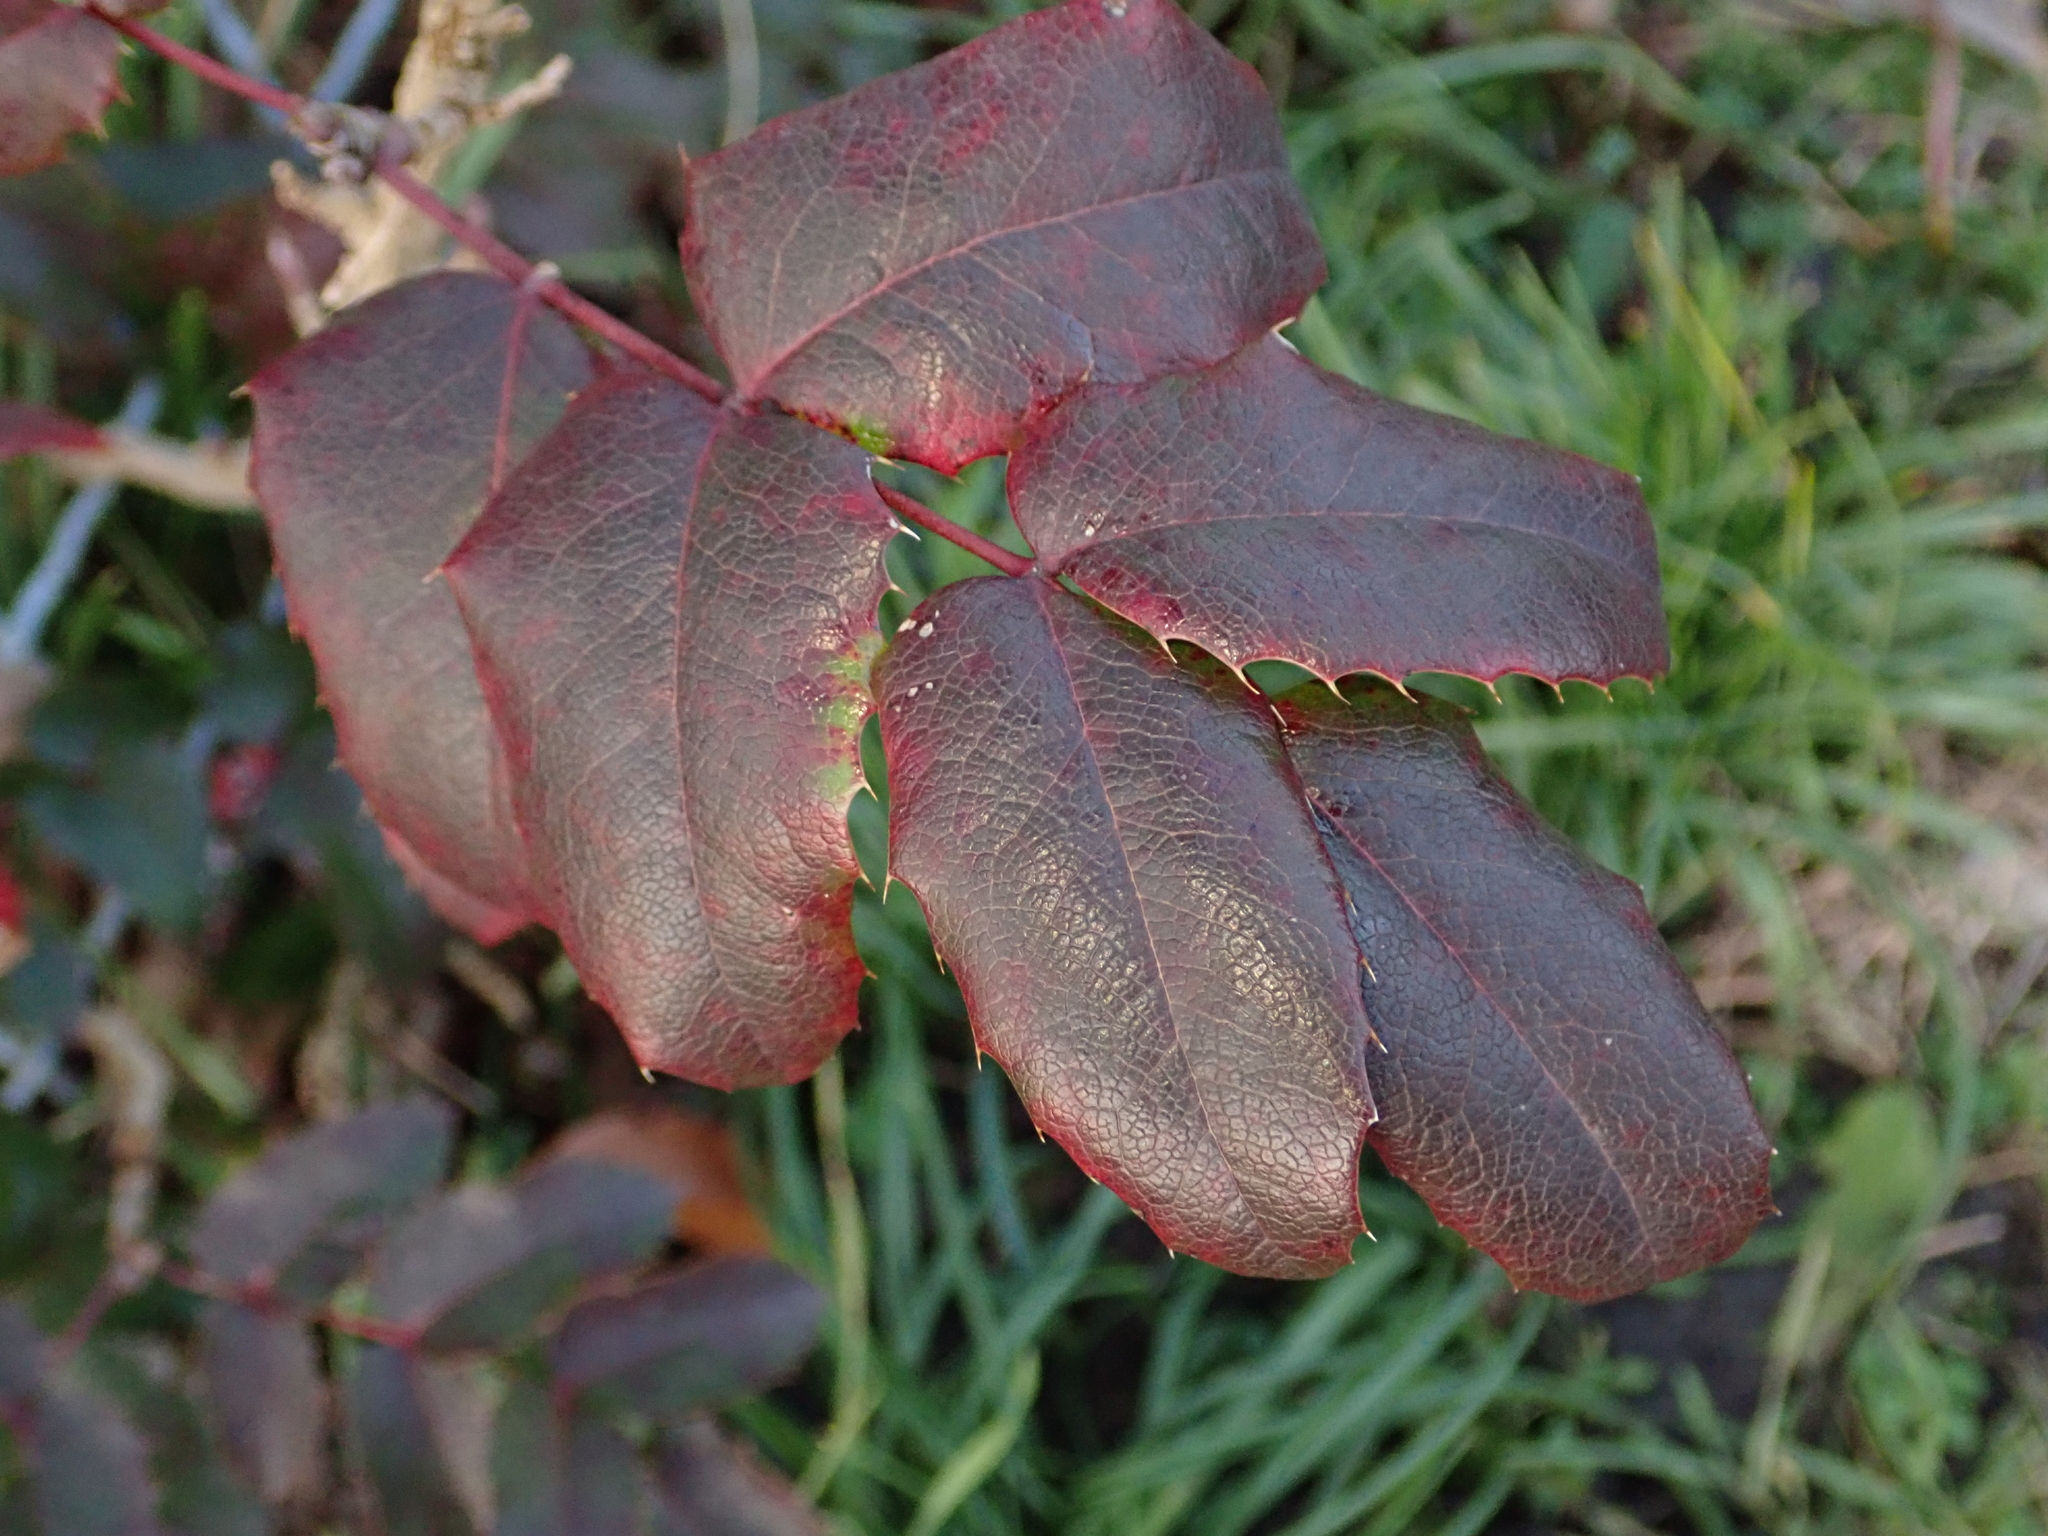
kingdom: Plantae
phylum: Tracheophyta
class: Magnoliopsida
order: Ranunculales
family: Berberidaceae
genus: Mahonia
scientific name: Mahonia aquifolium
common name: Oregon-grape
